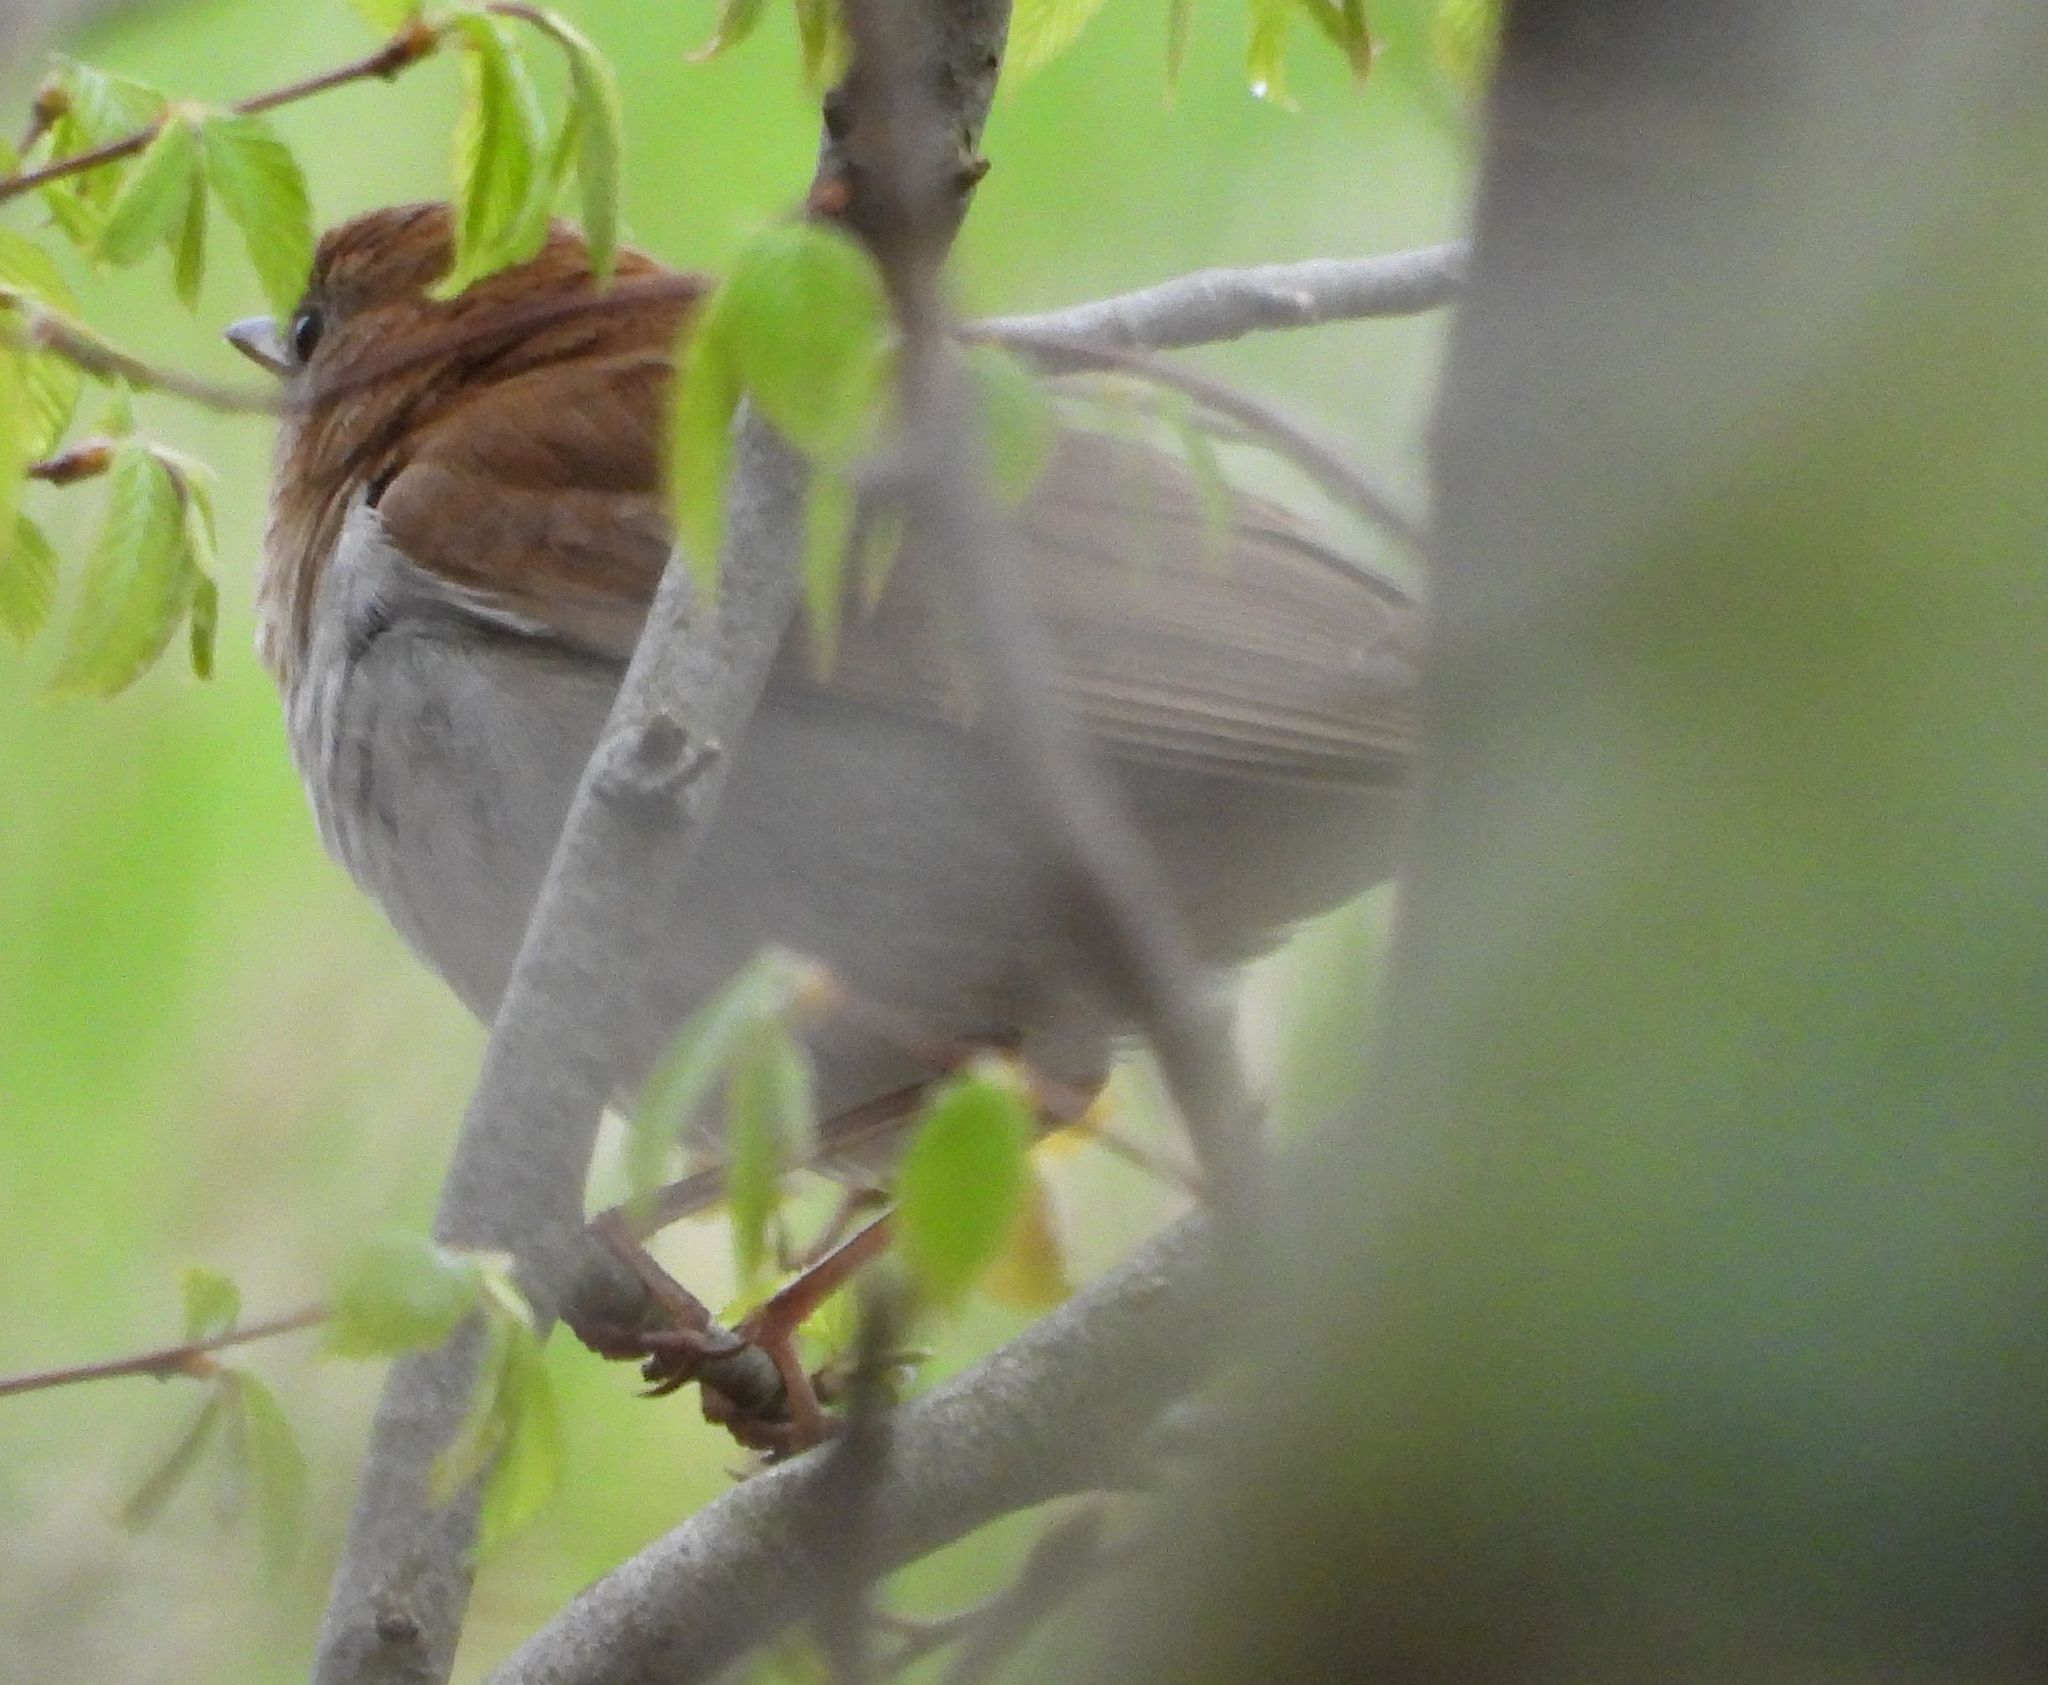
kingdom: Animalia
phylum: Chordata
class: Aves
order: Passeriformes
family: Turdidae
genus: Catharus
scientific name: Catharus fuscescens
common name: Veery
